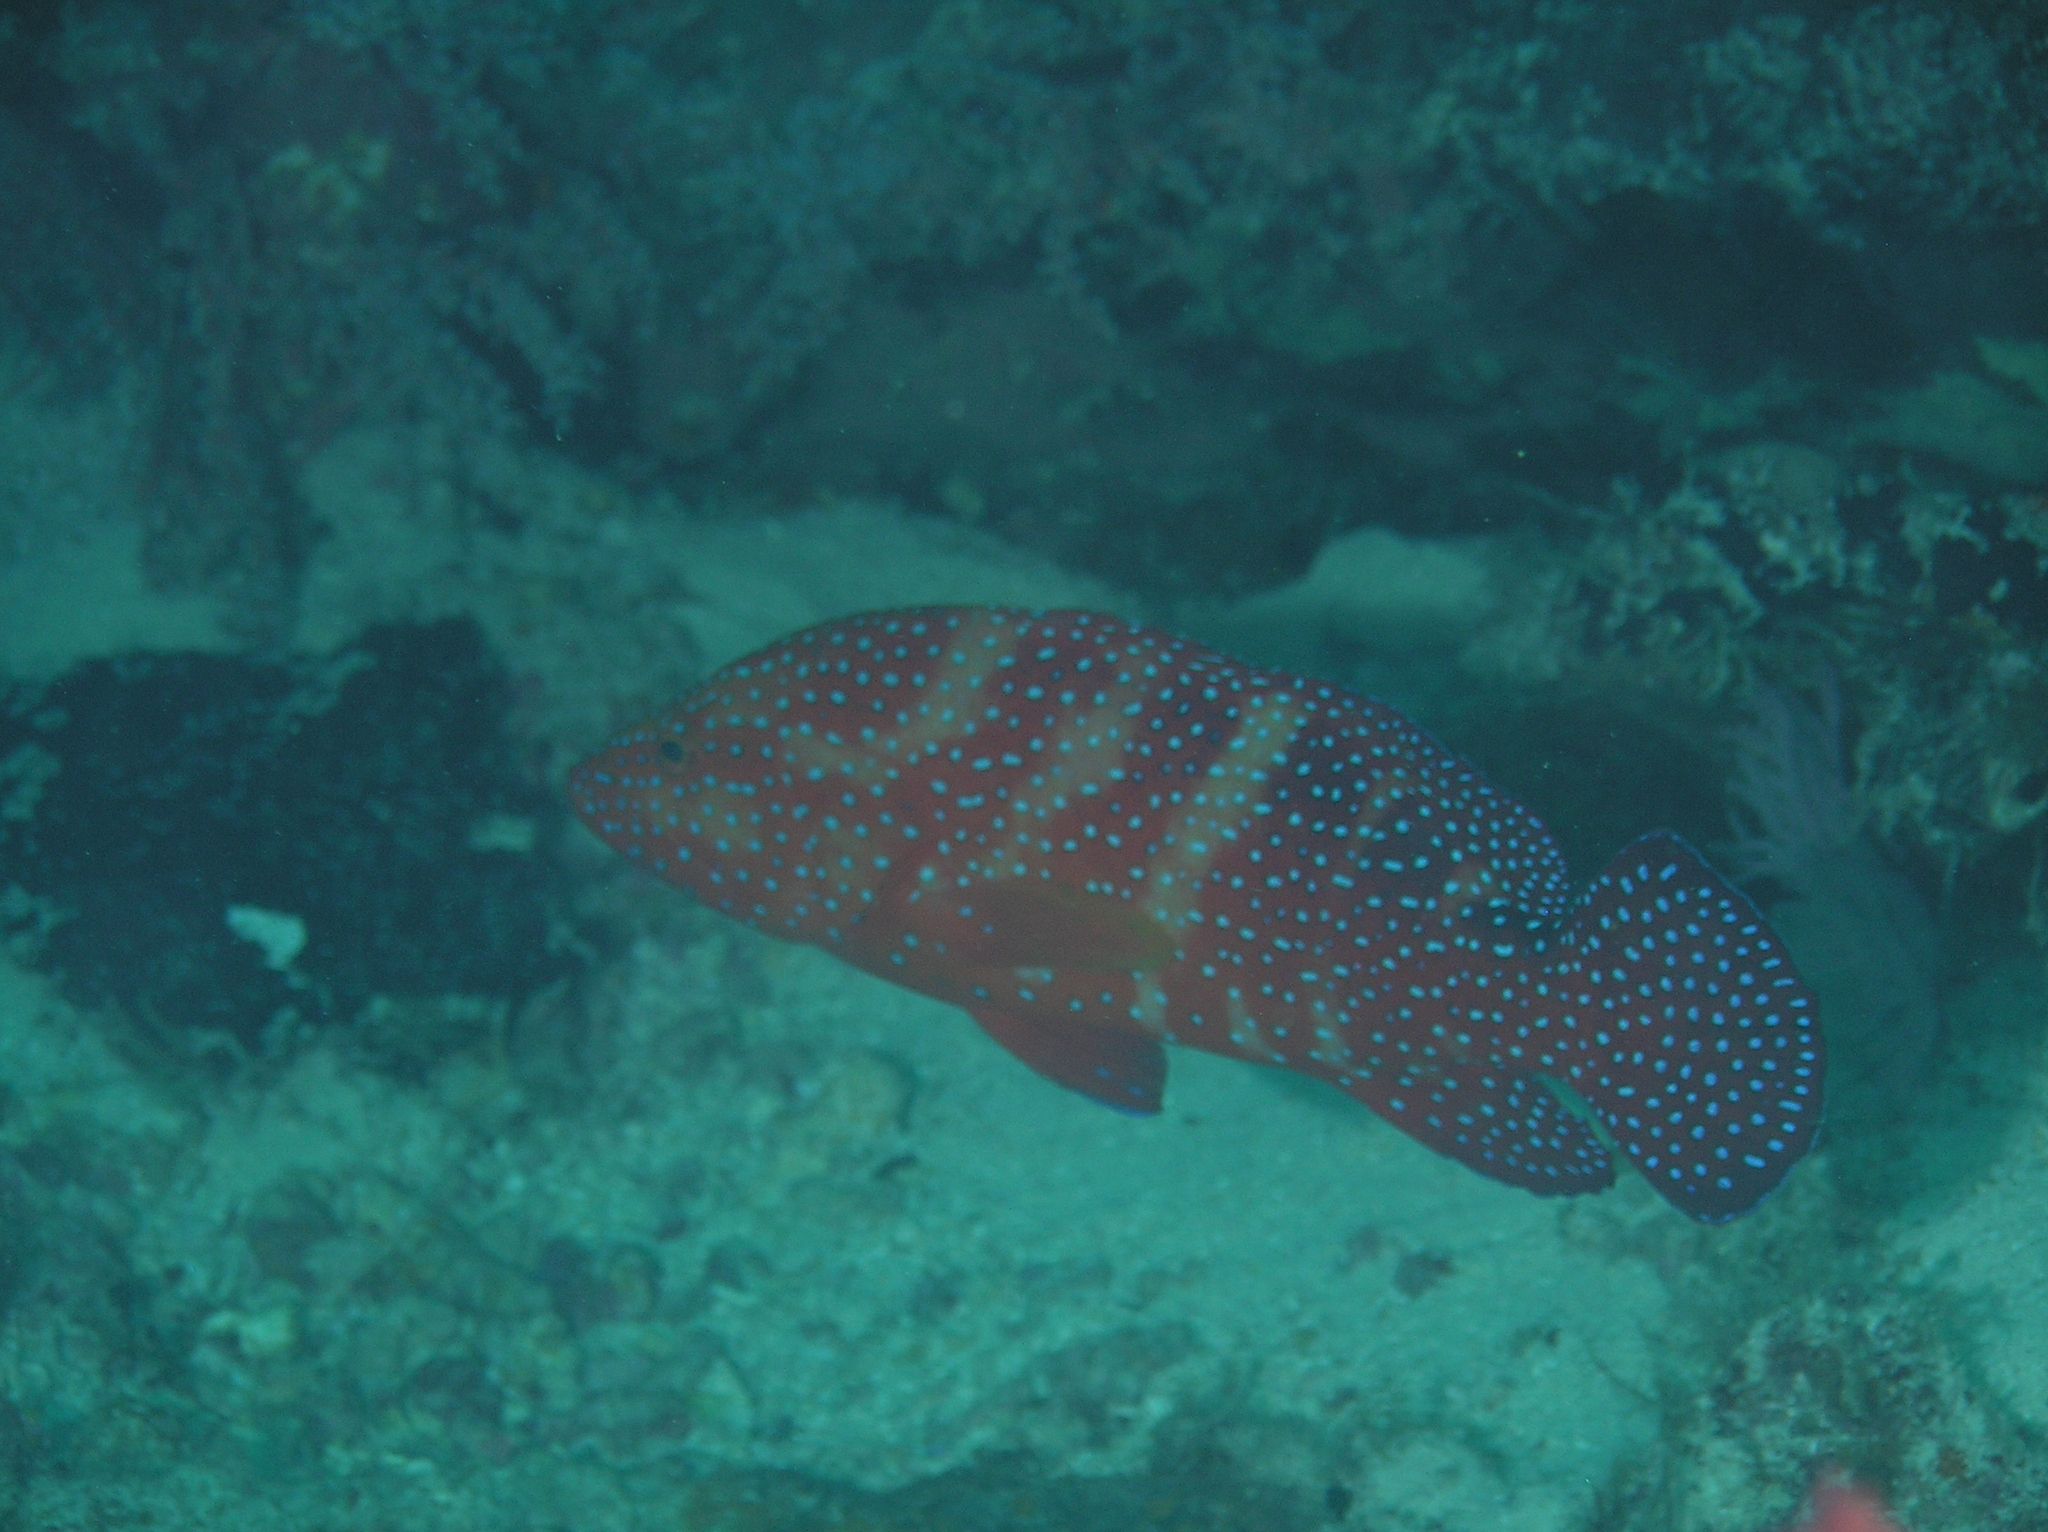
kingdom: Animalia
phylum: Chordata
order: Perciformes
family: Serranidae
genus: Cephalopholis
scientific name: Cephalopholis miniata
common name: Coral hind
